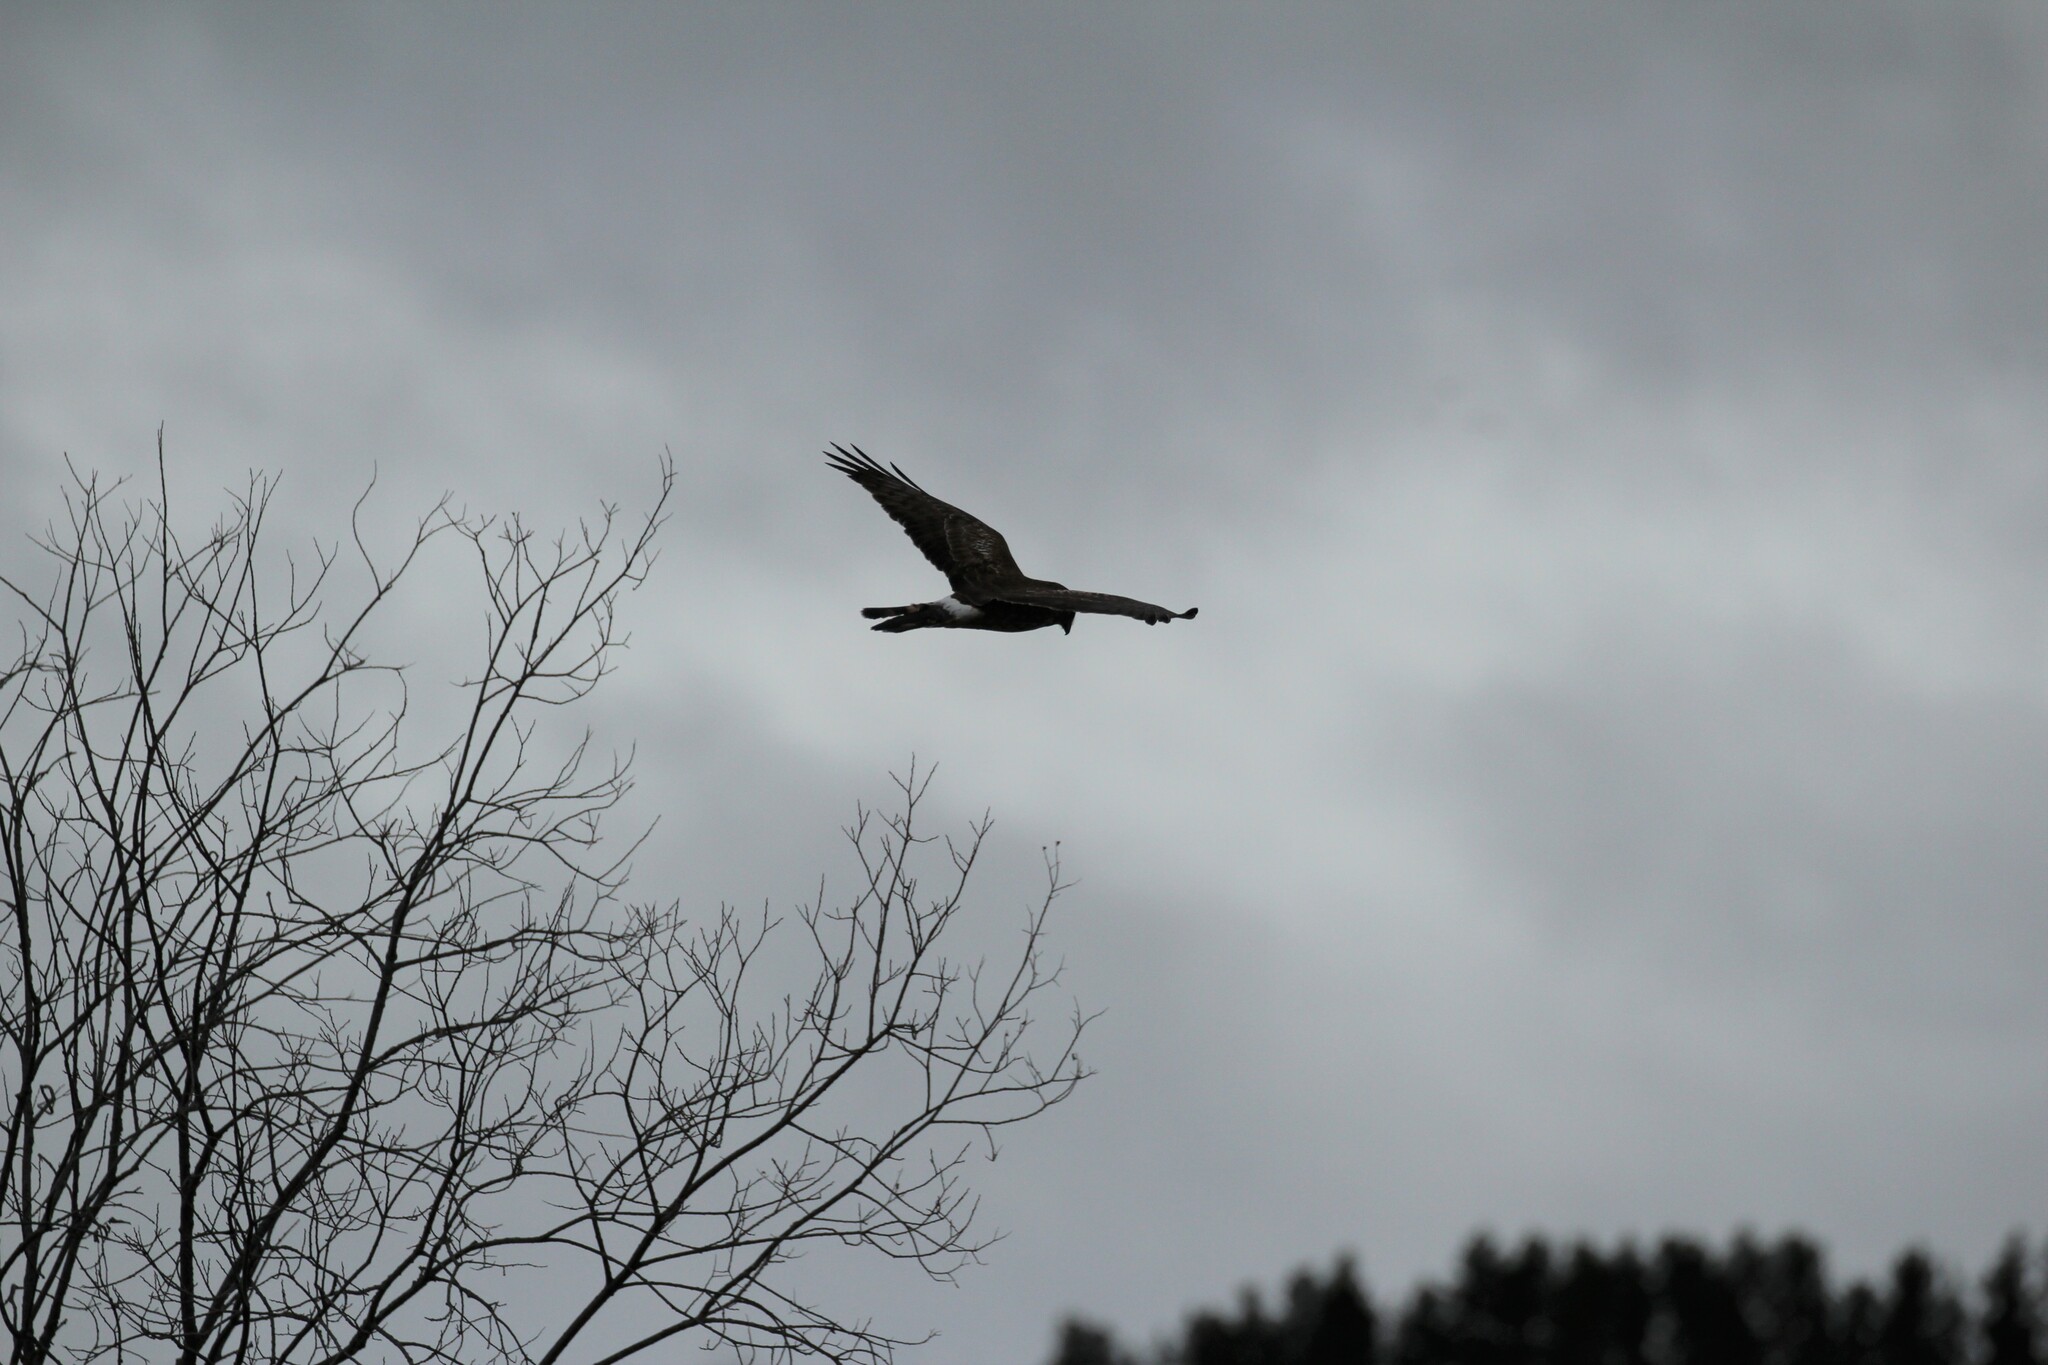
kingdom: Animalia
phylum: Chordata
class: Aves
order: Accipitriformes
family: Accipitridae
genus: Circus
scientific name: Circus cyaneus
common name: Hen harrier
